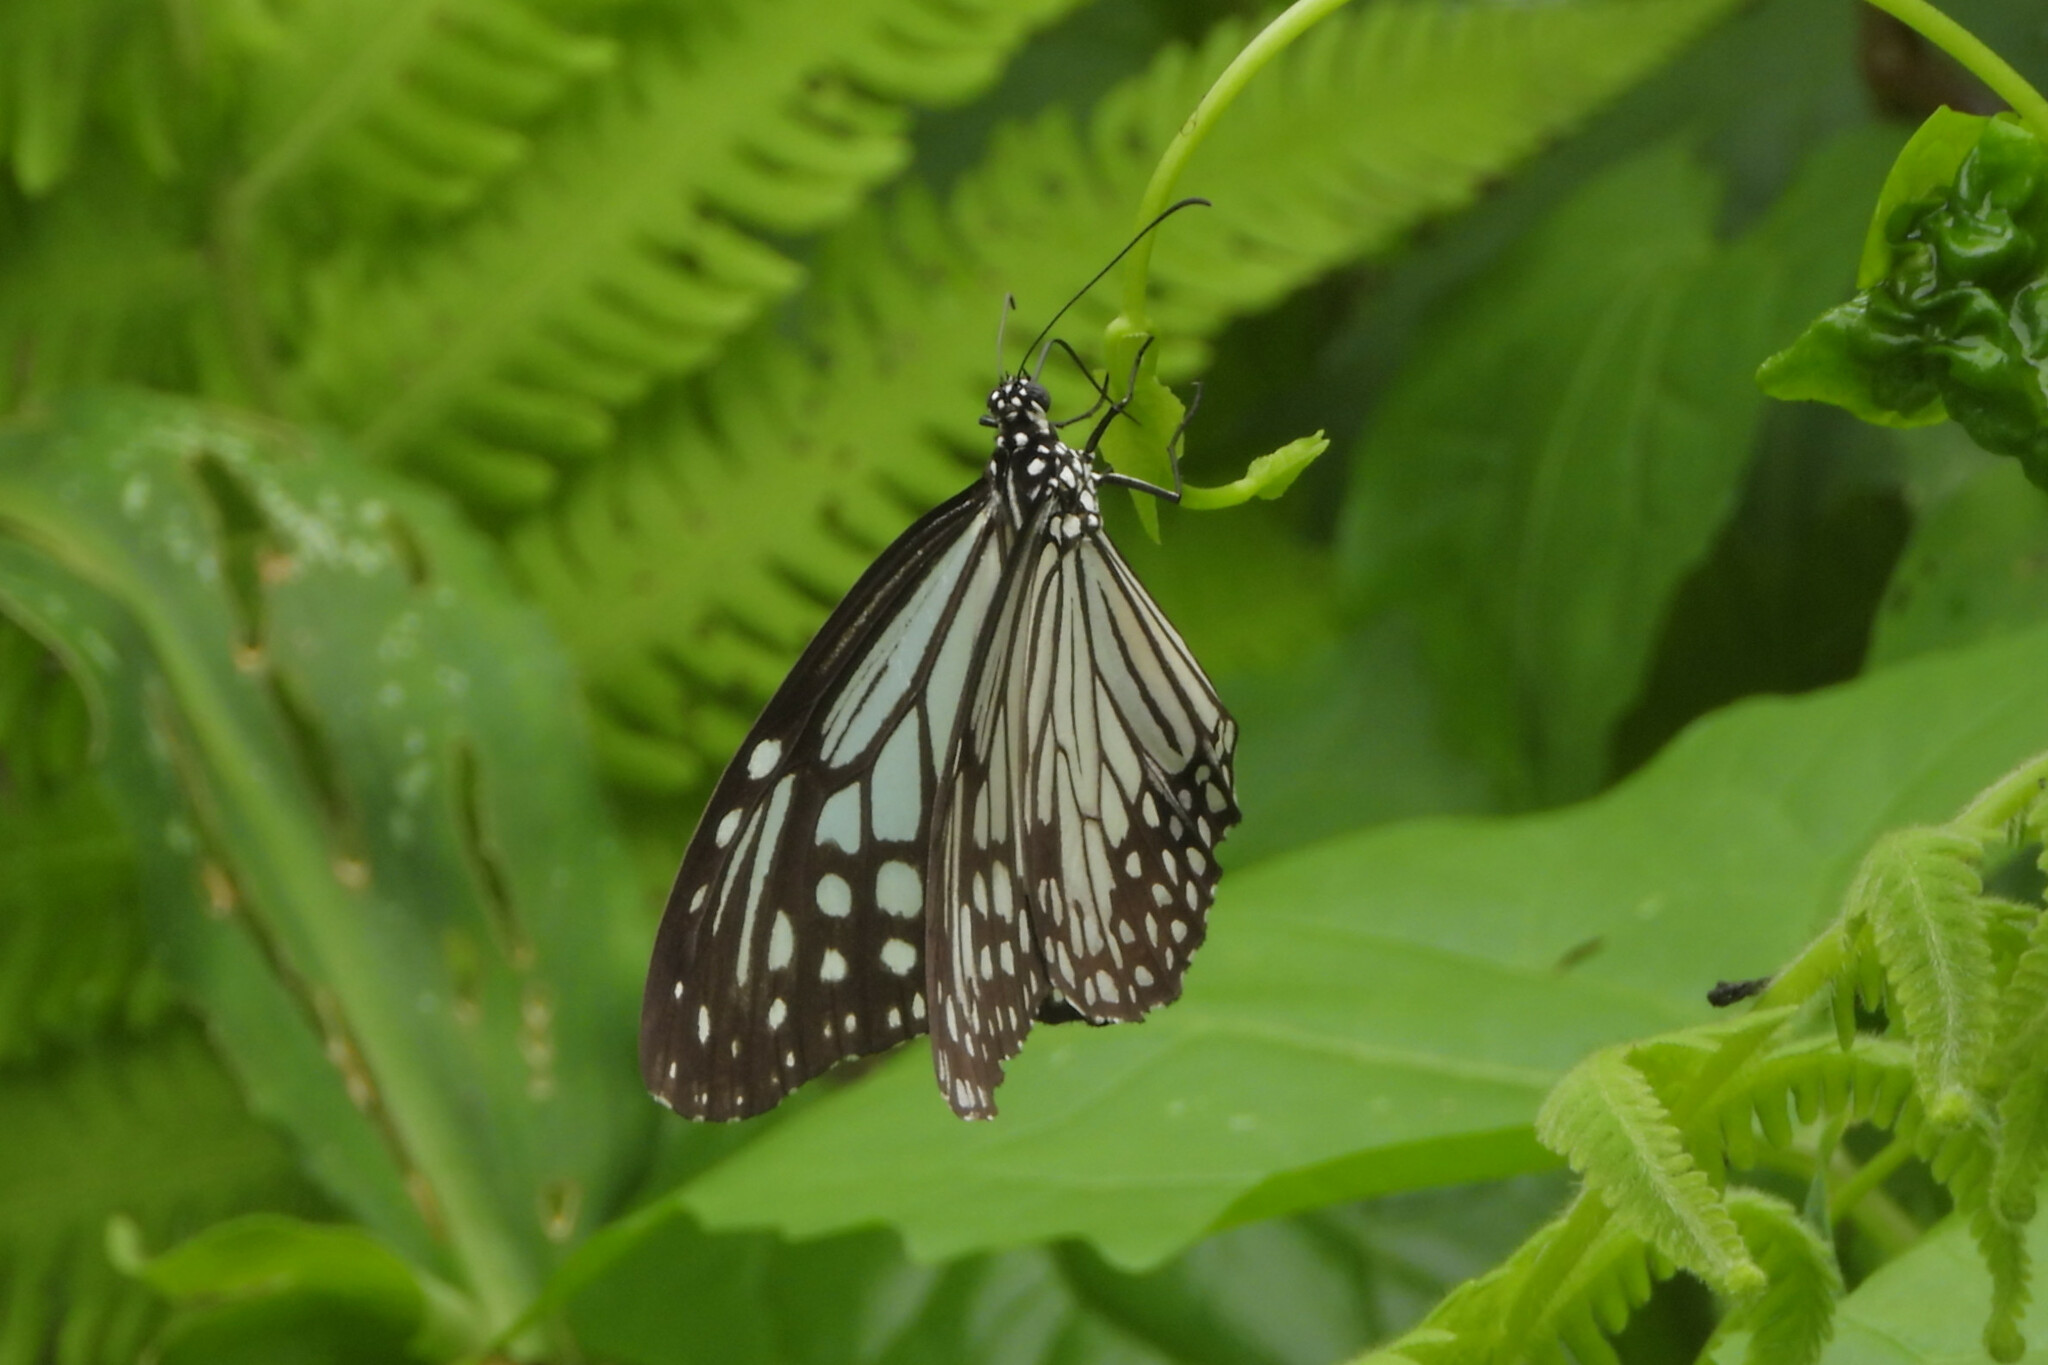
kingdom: Animalia
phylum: Arthropoda
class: Insecta
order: Lepidoptera
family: Nymphalidae
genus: Parantica
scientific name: Parantica aglea
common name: Glassy tiger
